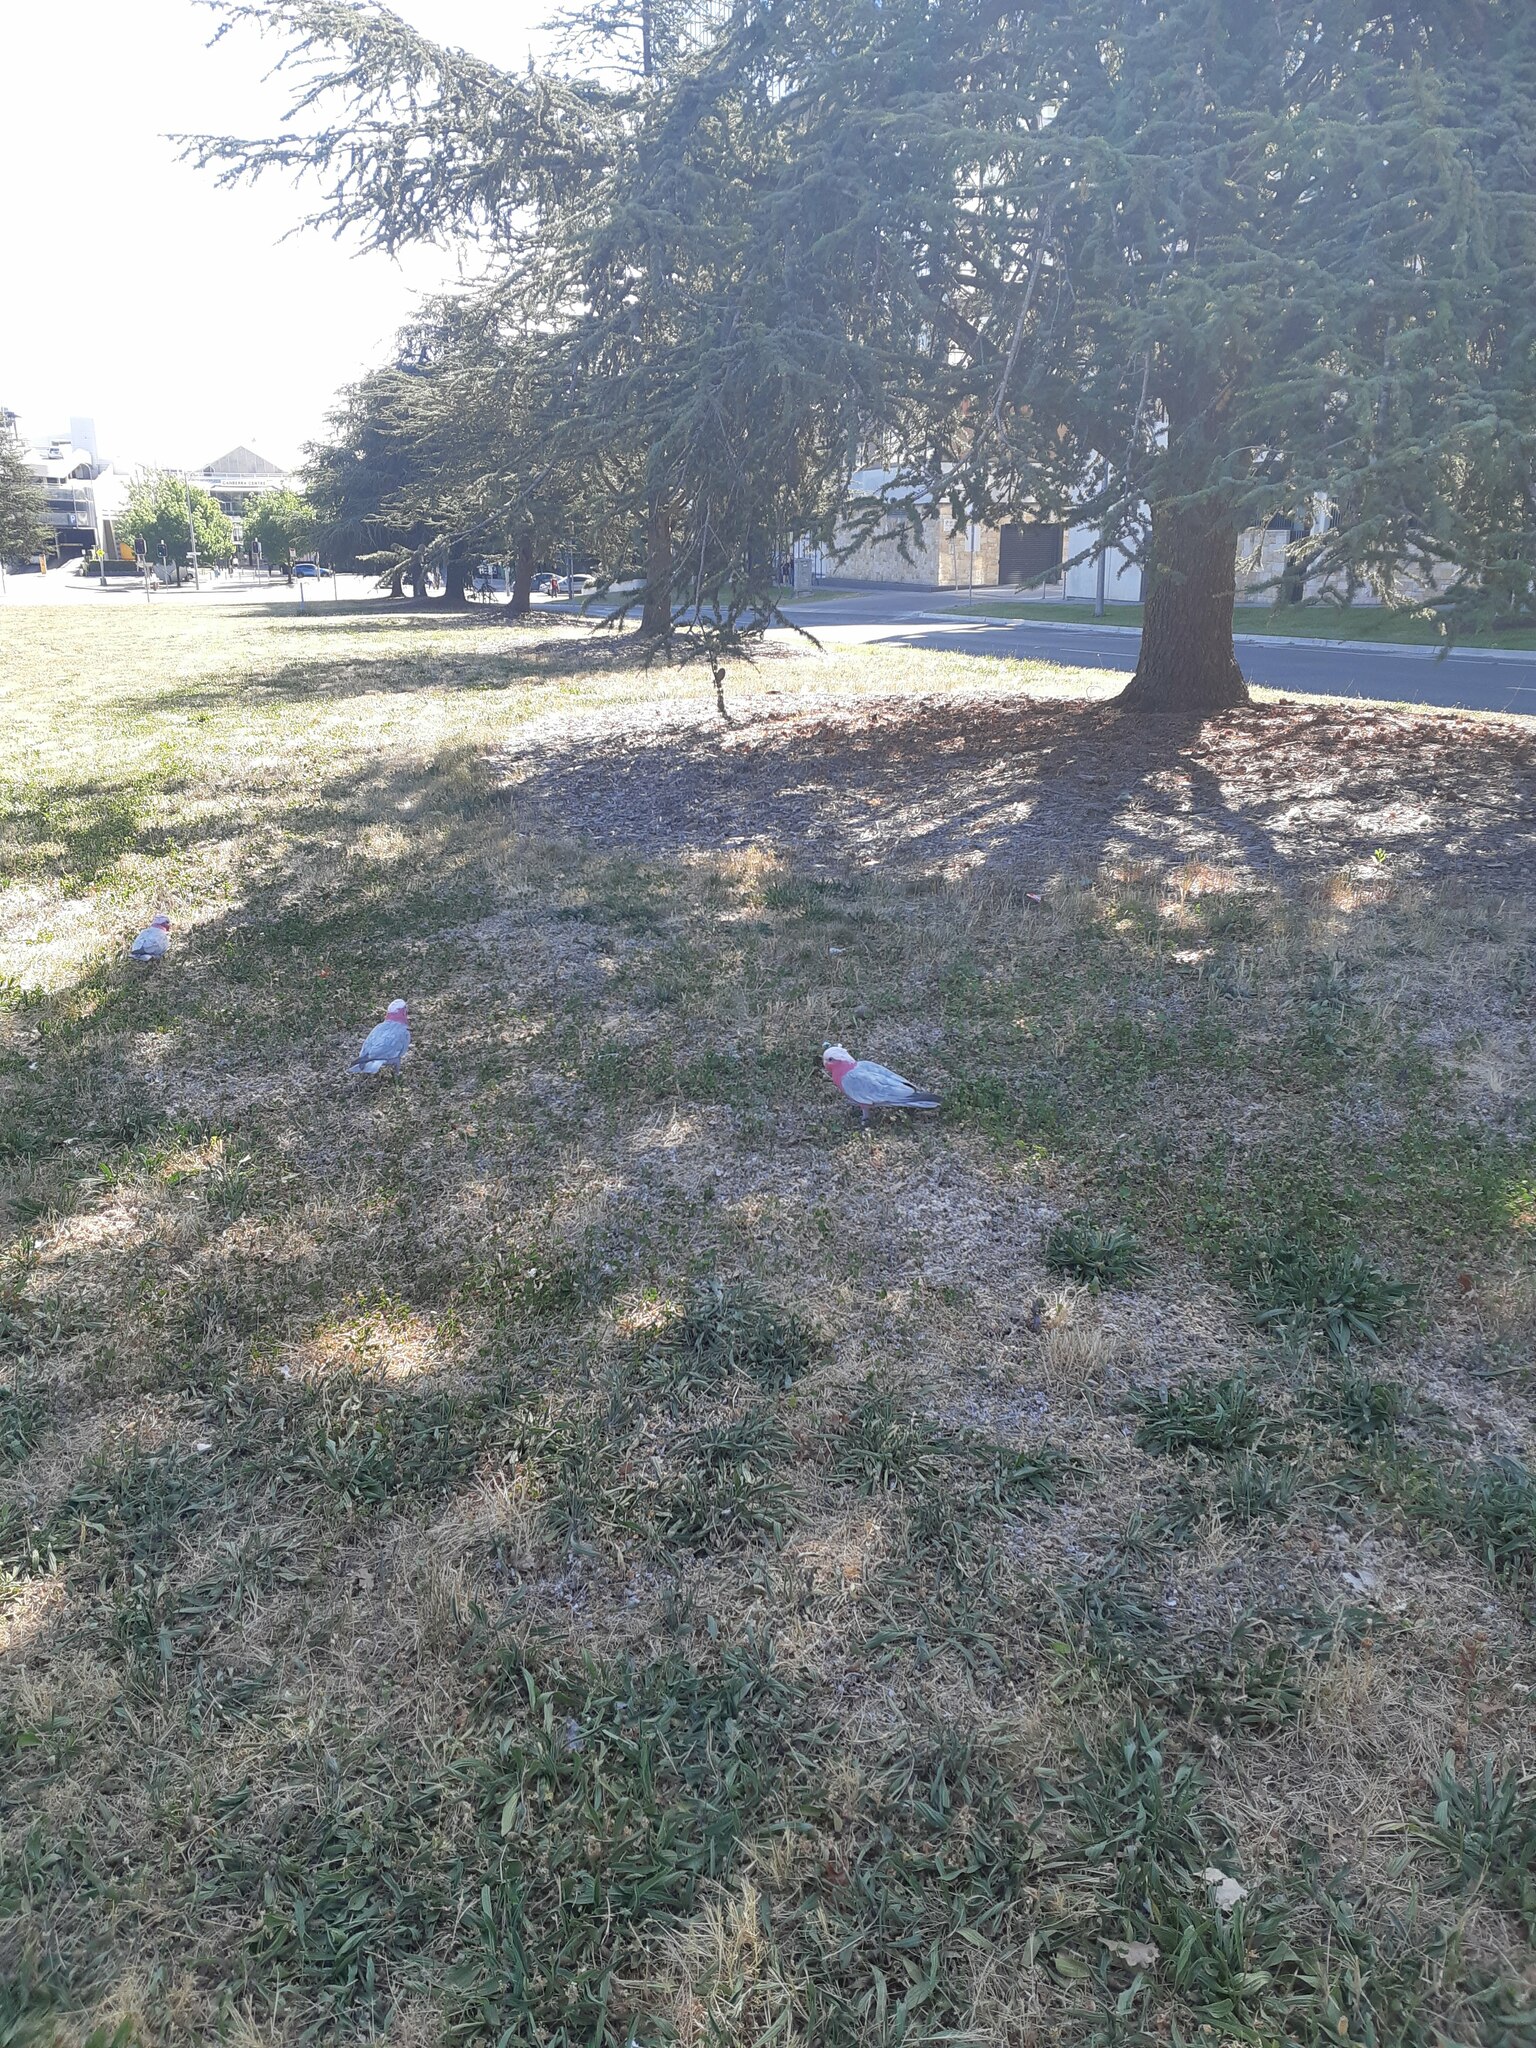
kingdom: Animalia
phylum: Chordata
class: Aves
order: Psittaciformes
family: Psittacidae
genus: Eolophus
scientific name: Eolophus roseicapilla
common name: Galah
